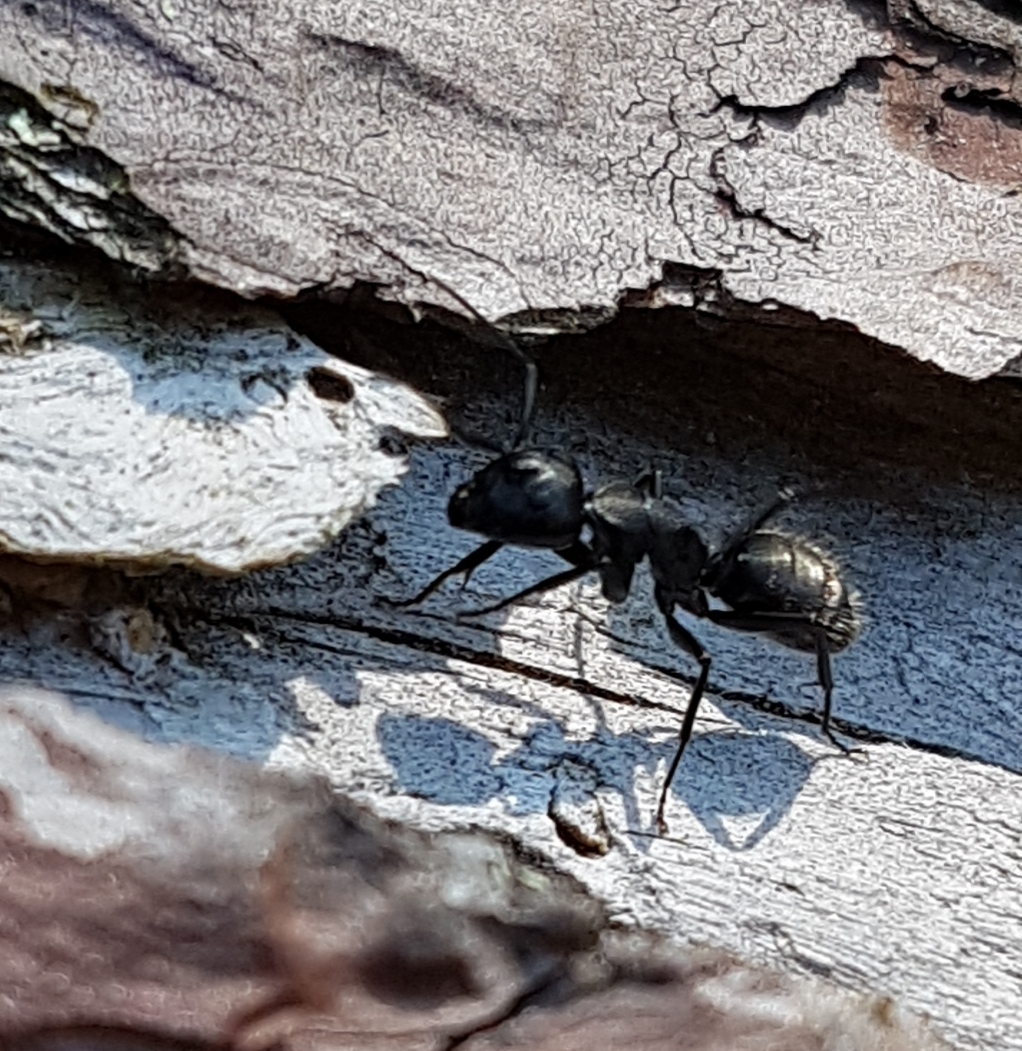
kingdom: Animalia
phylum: Arthropoda
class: Insecta
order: Hymenoptera
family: Formicidae
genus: Camponotus
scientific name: Camponotus vagus
